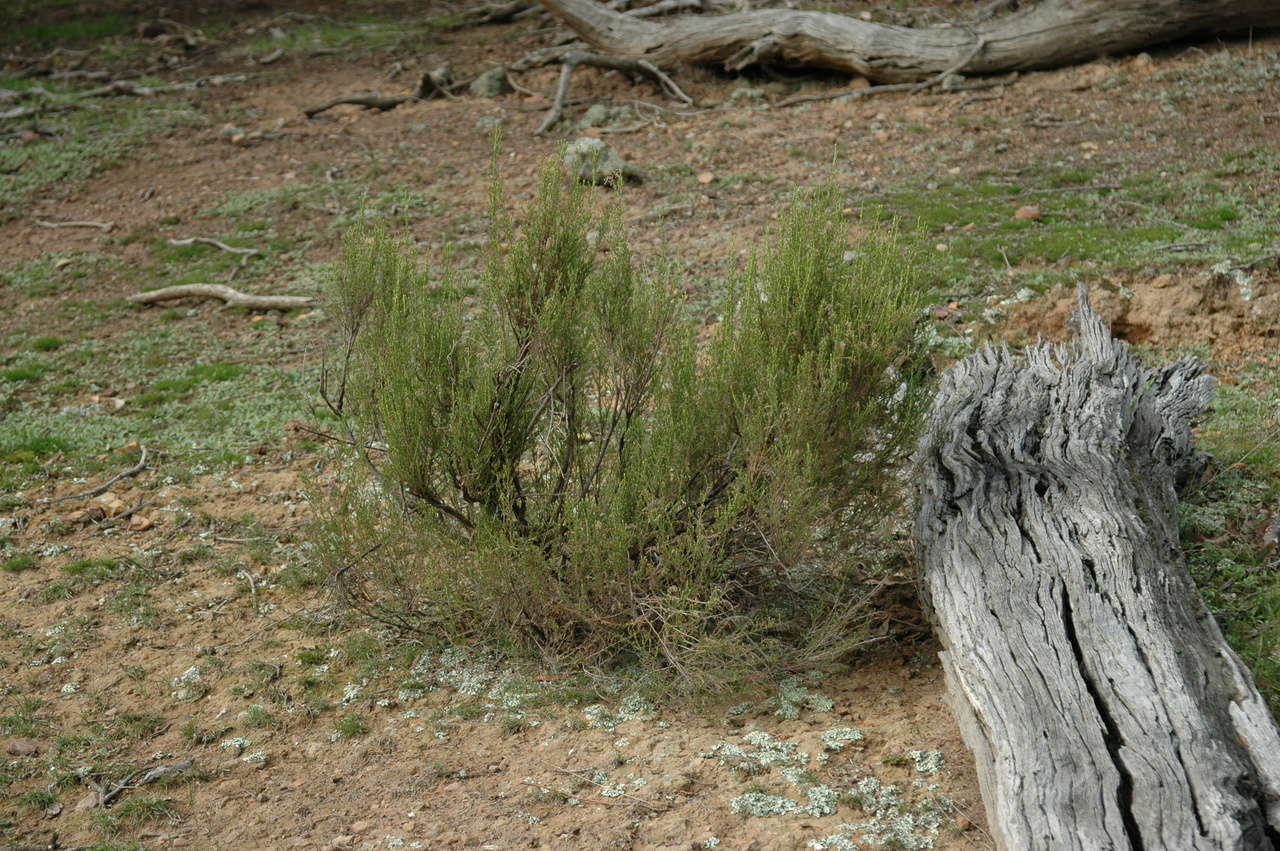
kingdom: Plantae
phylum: Tracheophyta
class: Magnoliopsida
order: Asterales
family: Asteraceae
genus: Cassinia
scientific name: Cassinia sifton
